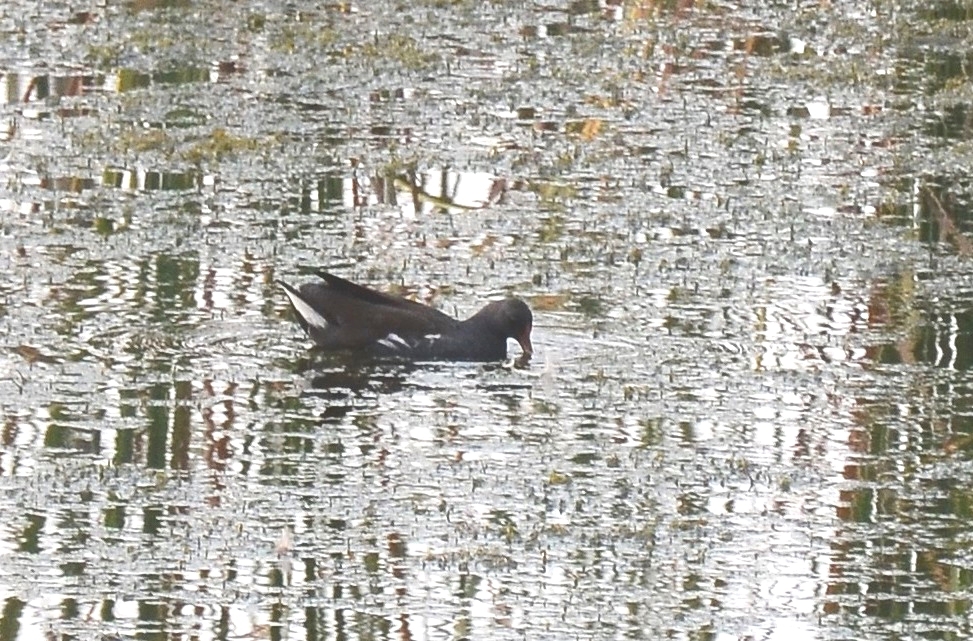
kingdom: Animalia
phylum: Chordata
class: Aves
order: Gruiformes
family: Rallidae
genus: Gallinula
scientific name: Gallinula chloropus
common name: Common moorhen
